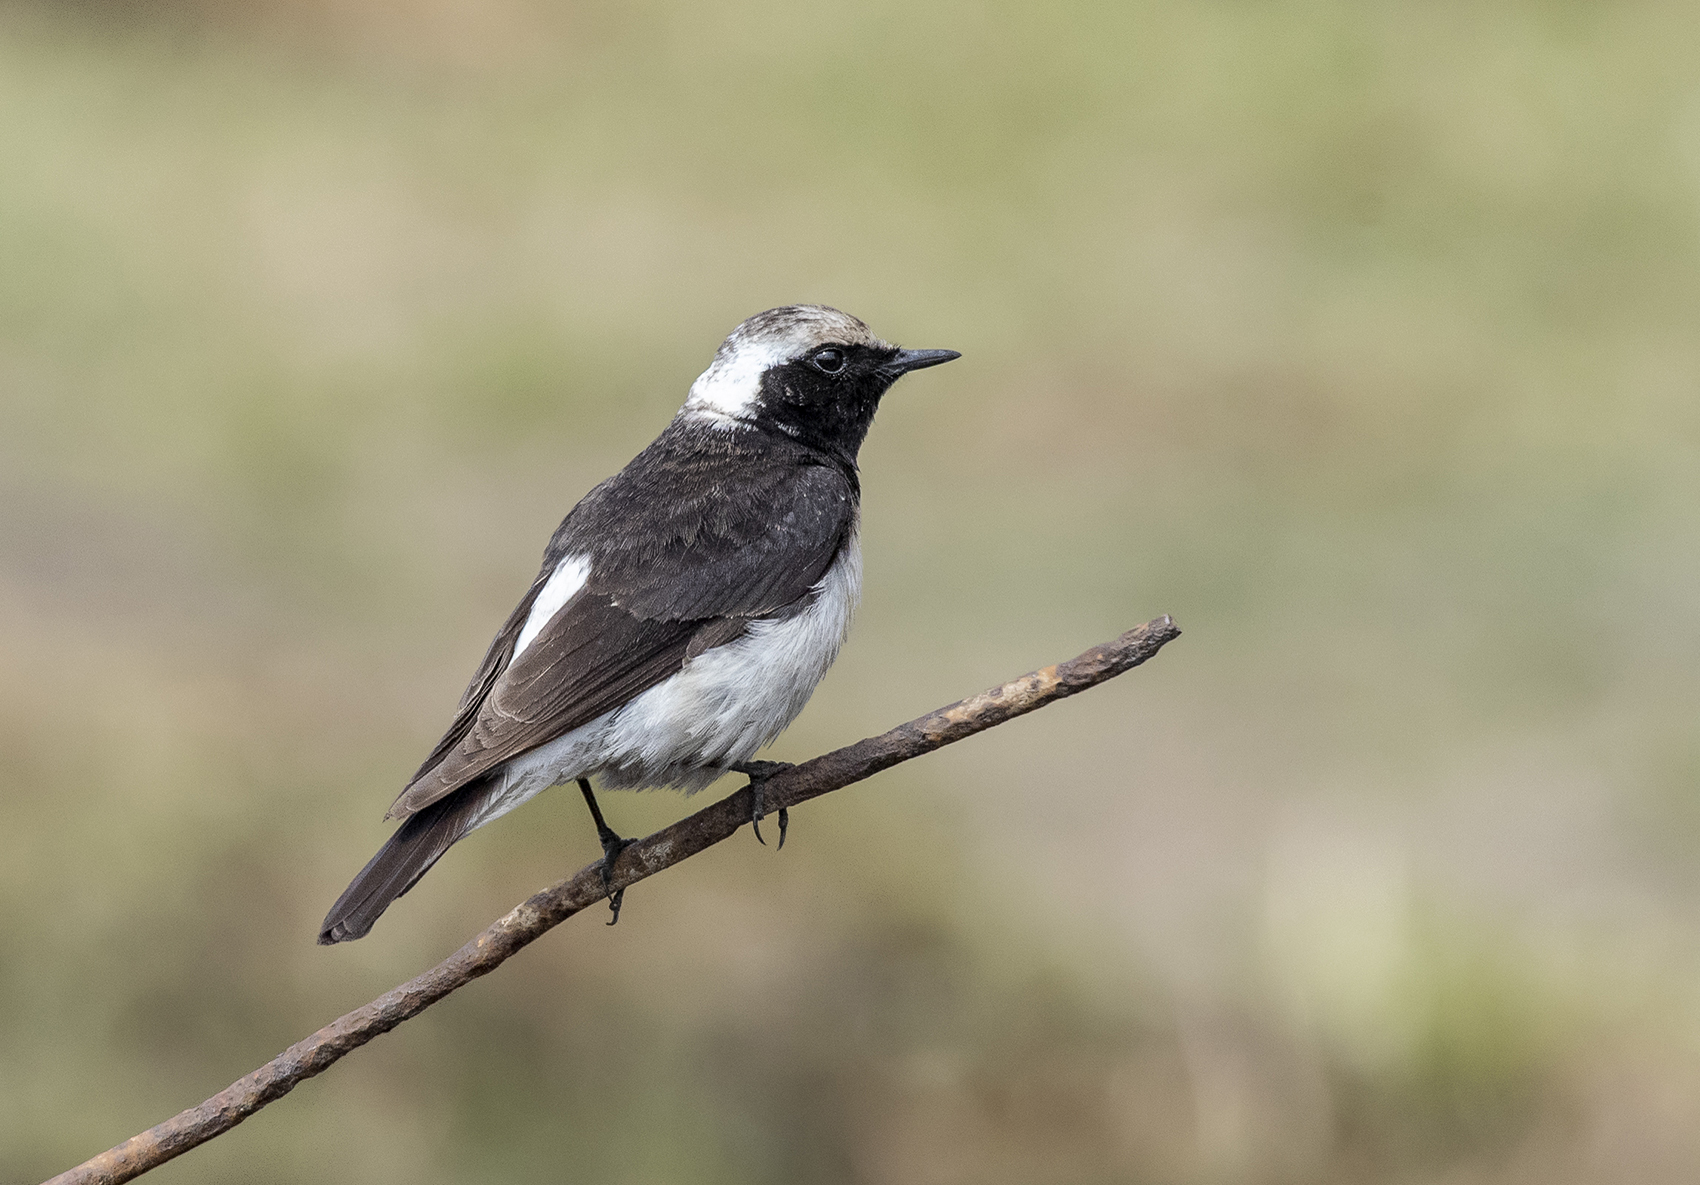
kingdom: Animalia
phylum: Chordata
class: Aves
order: Passeriformes
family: Muscicapidae
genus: Oenanthe
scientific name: Oenanthe pleschanka
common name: Pied wheatear
